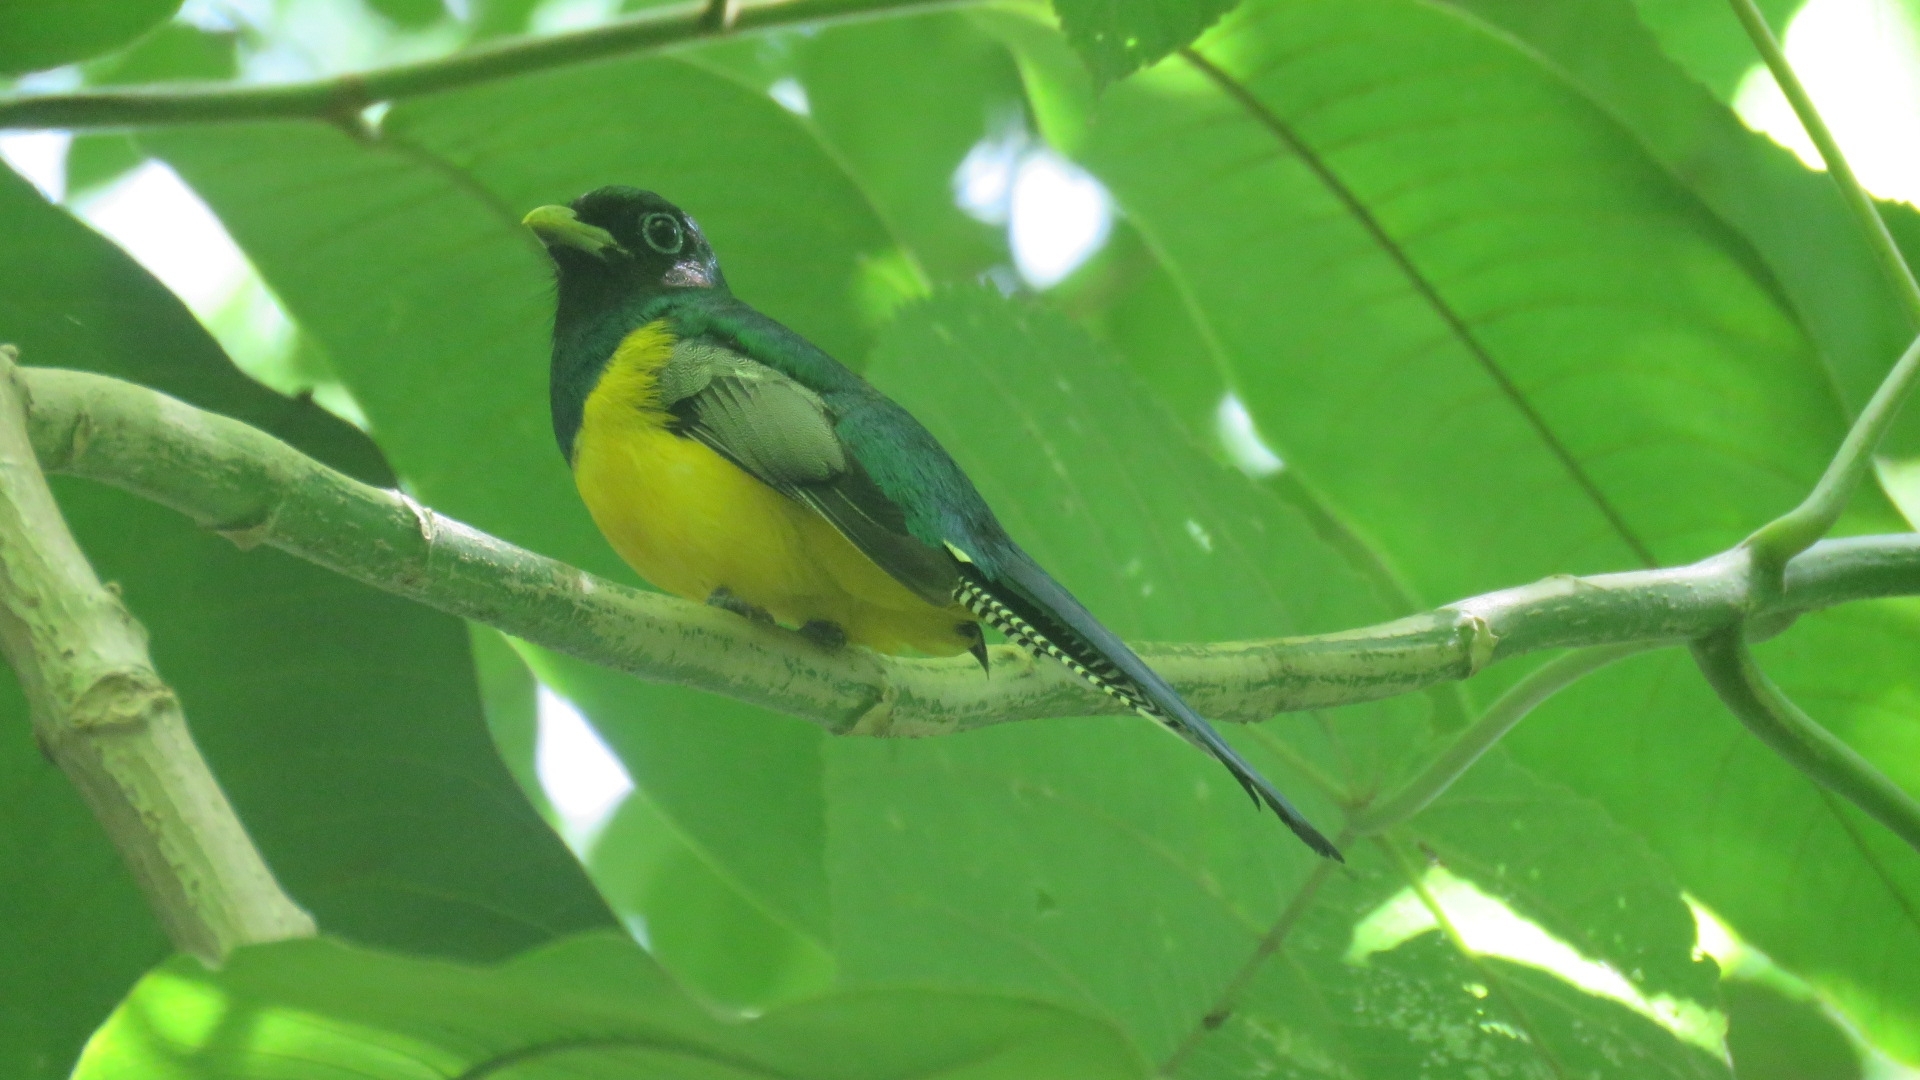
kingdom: Animalia
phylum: Chordata
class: Aves
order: Trogoniformes
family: Trogonidae
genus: Trogon
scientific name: Trogon rufus
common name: Black-throated trogon
